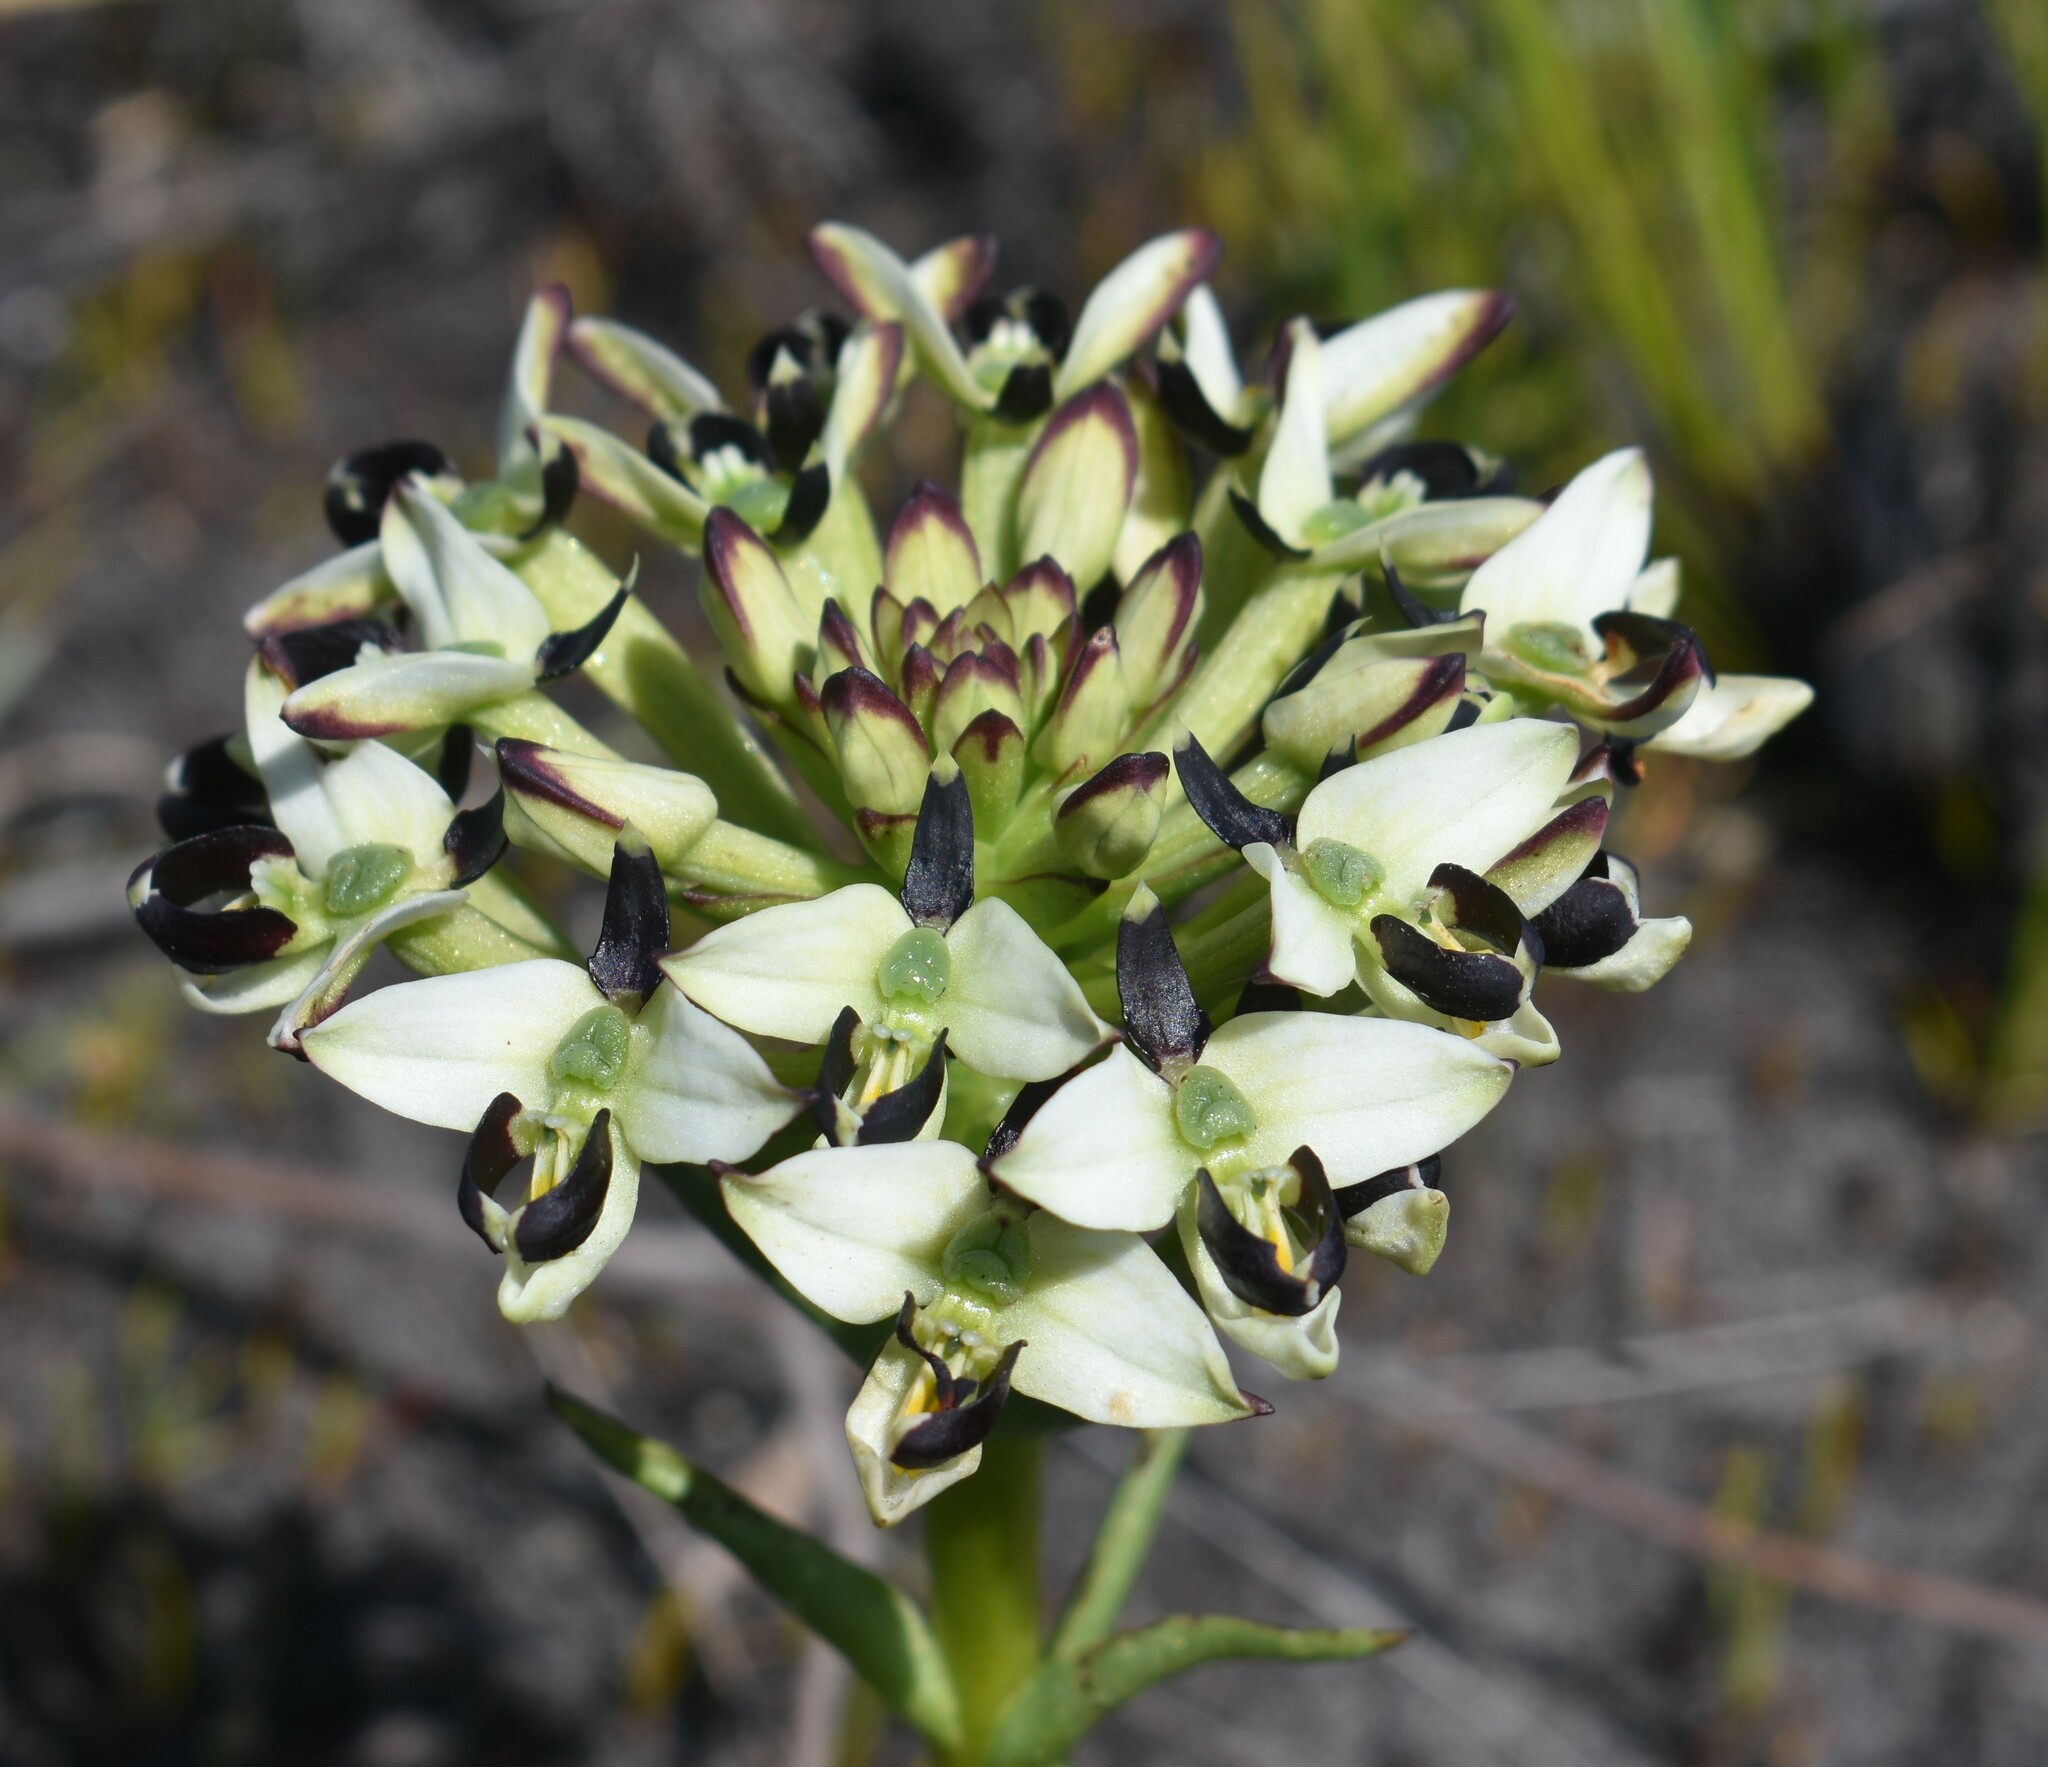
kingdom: Plantae
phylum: Tracheophyta
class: Liliopsida
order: Asparagales
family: Orchidaceae
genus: Disa
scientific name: Disa bivalvata
